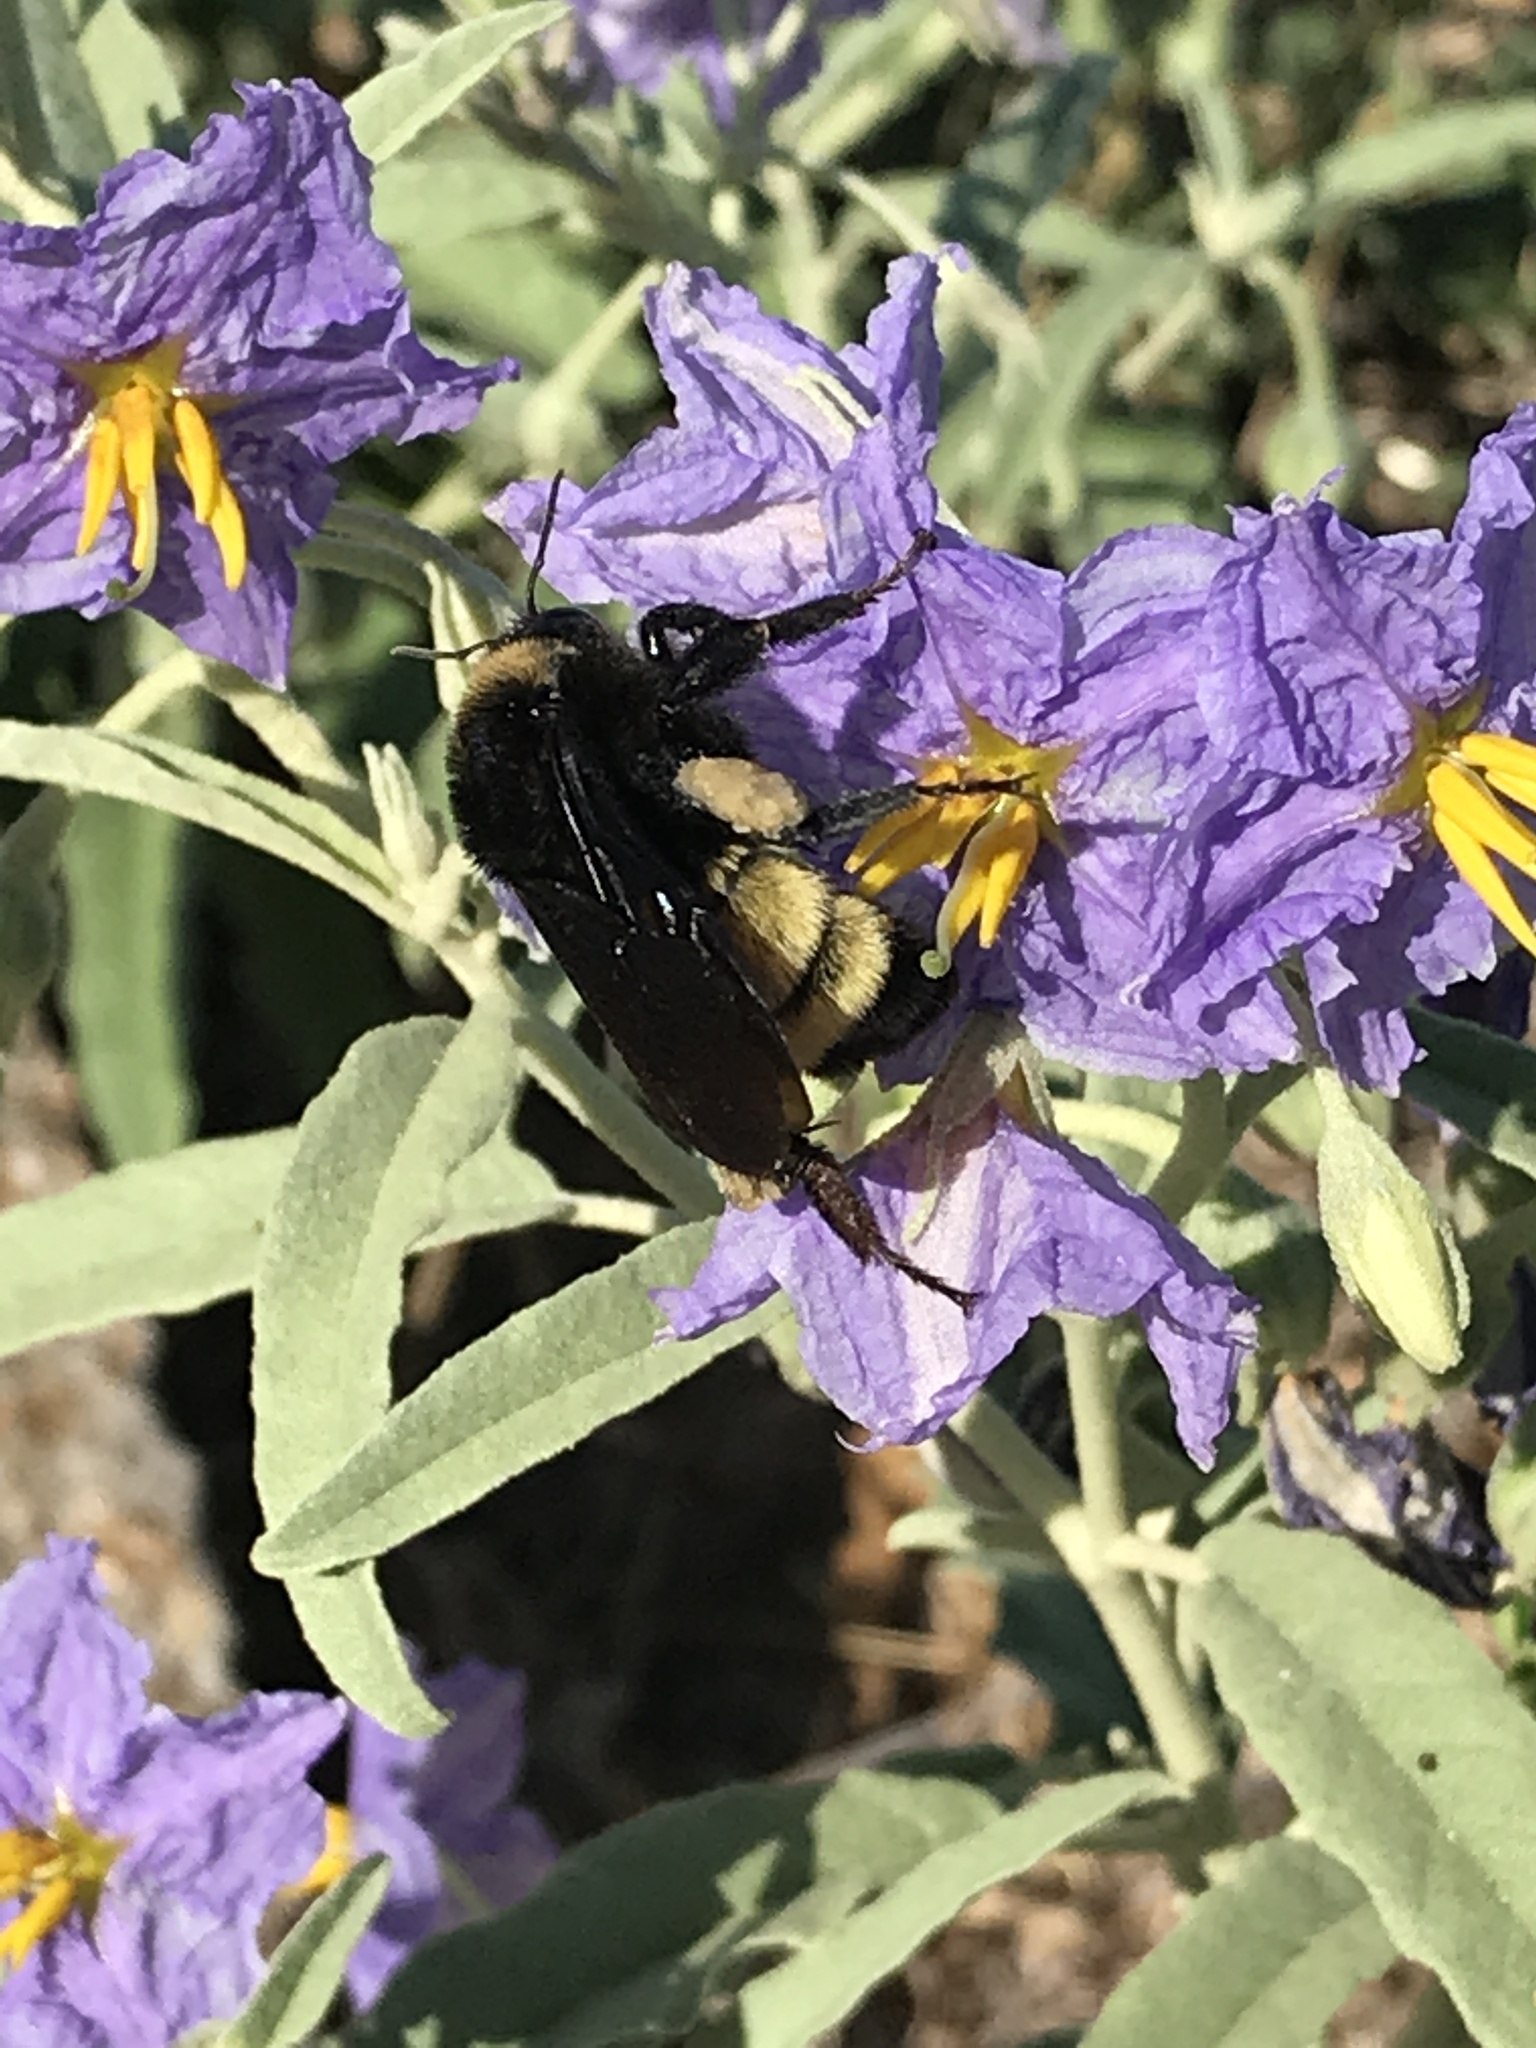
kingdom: Animalia
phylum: Arthropoda
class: Insecta
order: Hymenoptera
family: Apidae
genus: Bombus
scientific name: Bombus pensylvanicus
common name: Bumble bee
